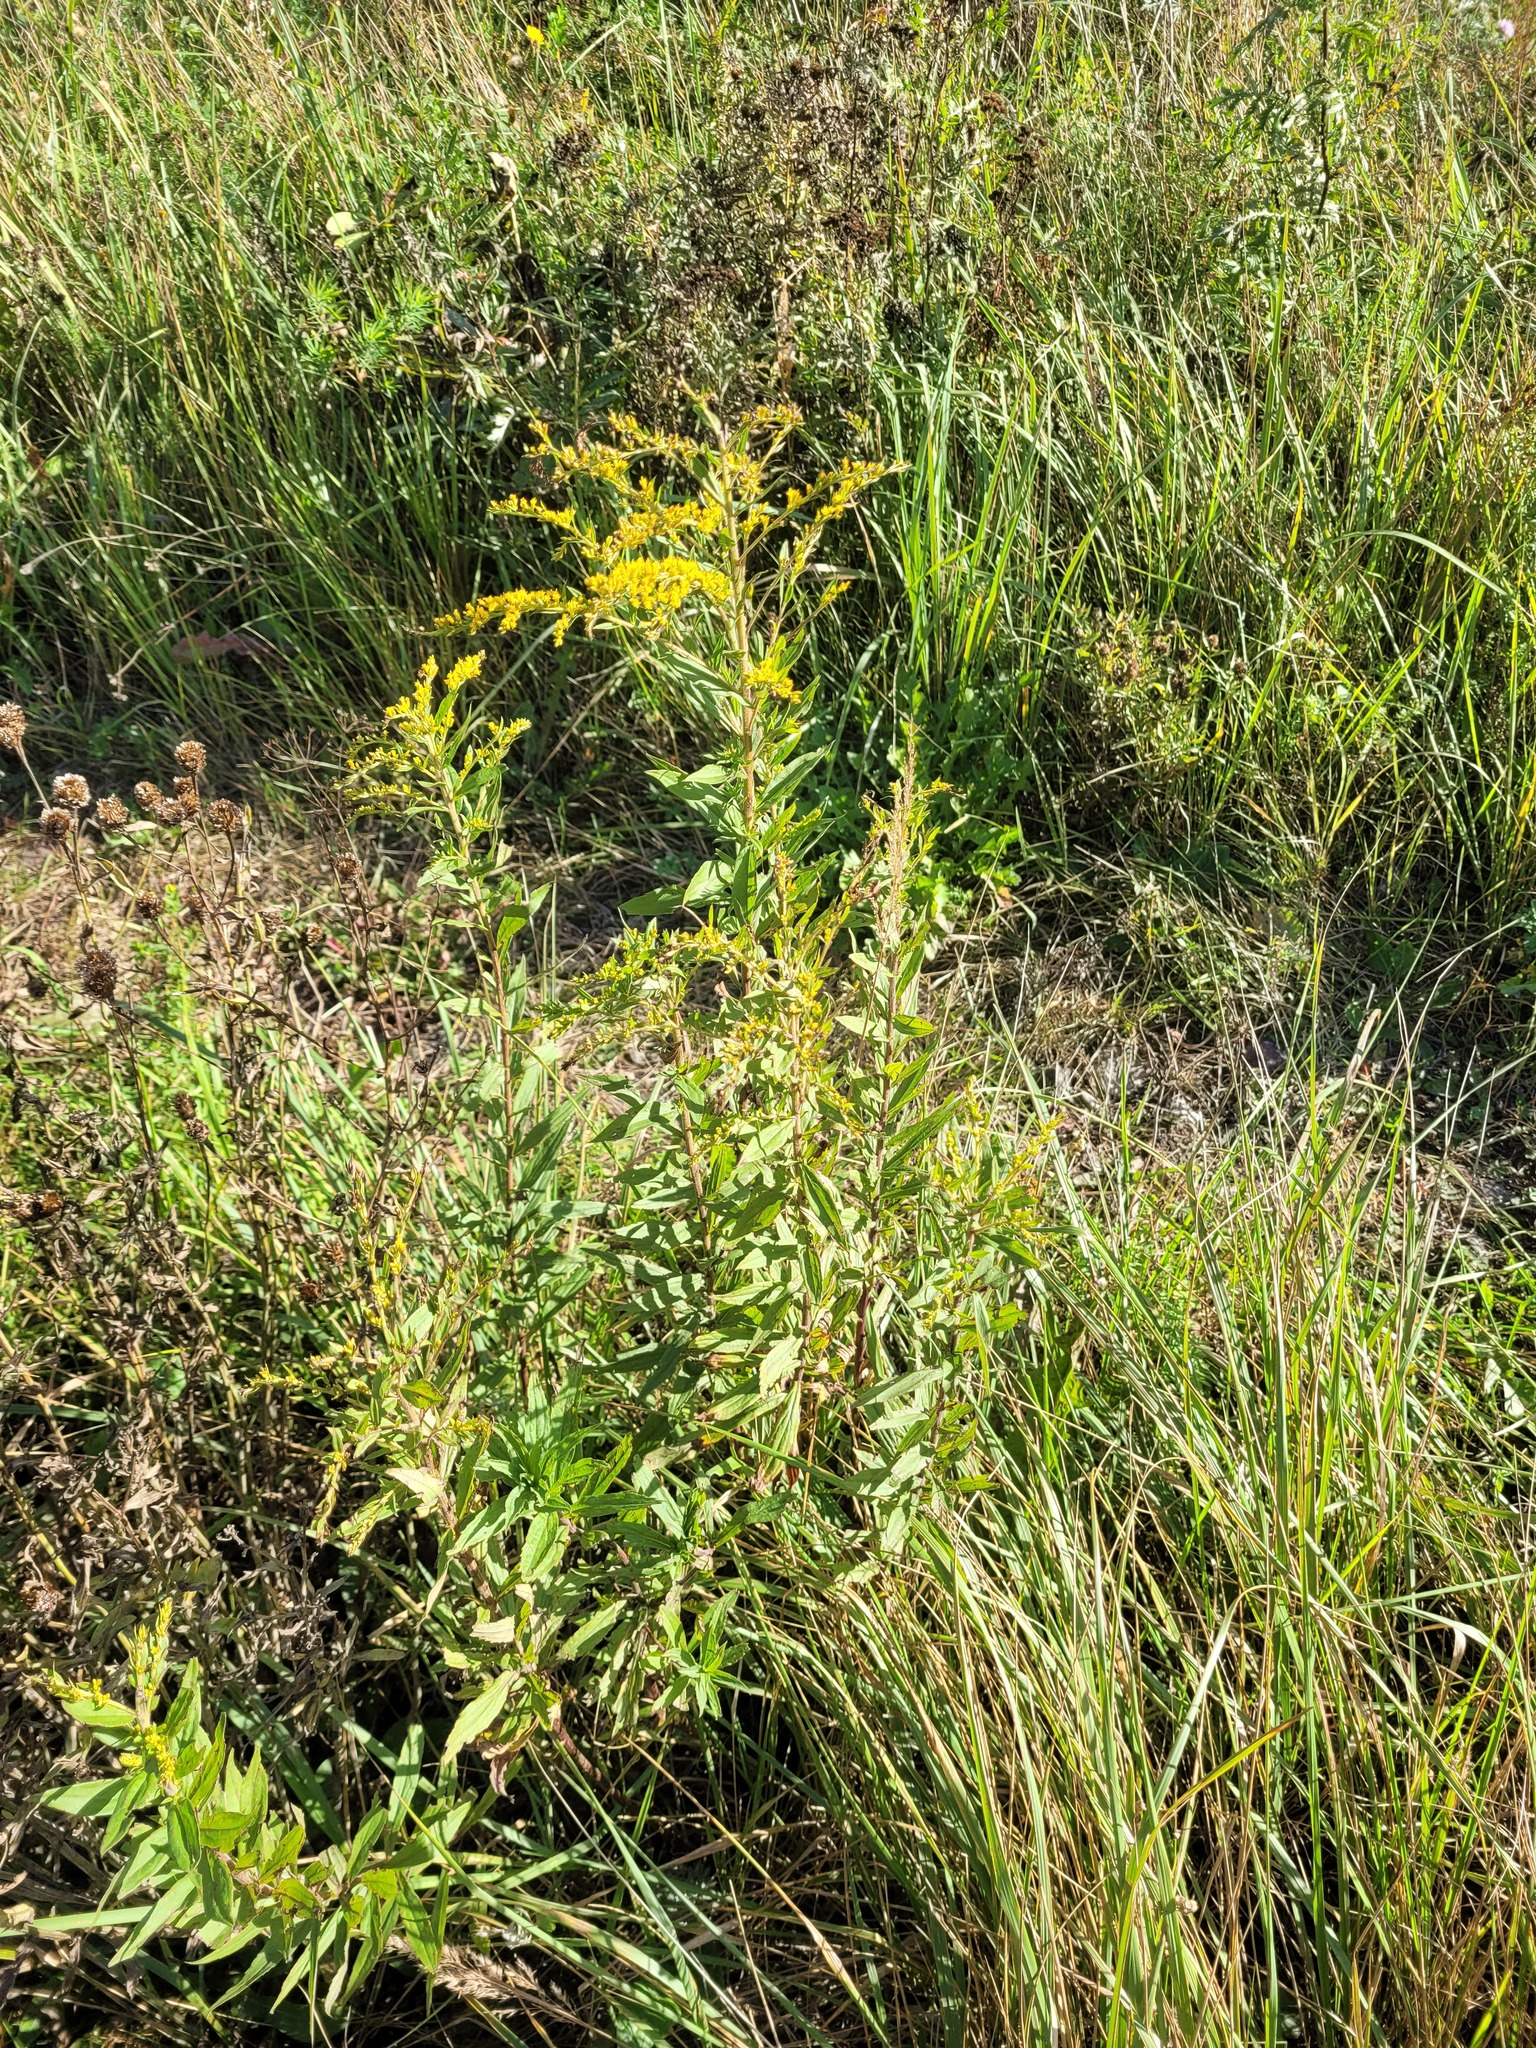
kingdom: Plantae
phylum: Tracheophyta
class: Magnoliopsida
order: Asterales
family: Asteraceae
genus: Solidago
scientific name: Solidago canadensis
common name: Canada goldenrod
